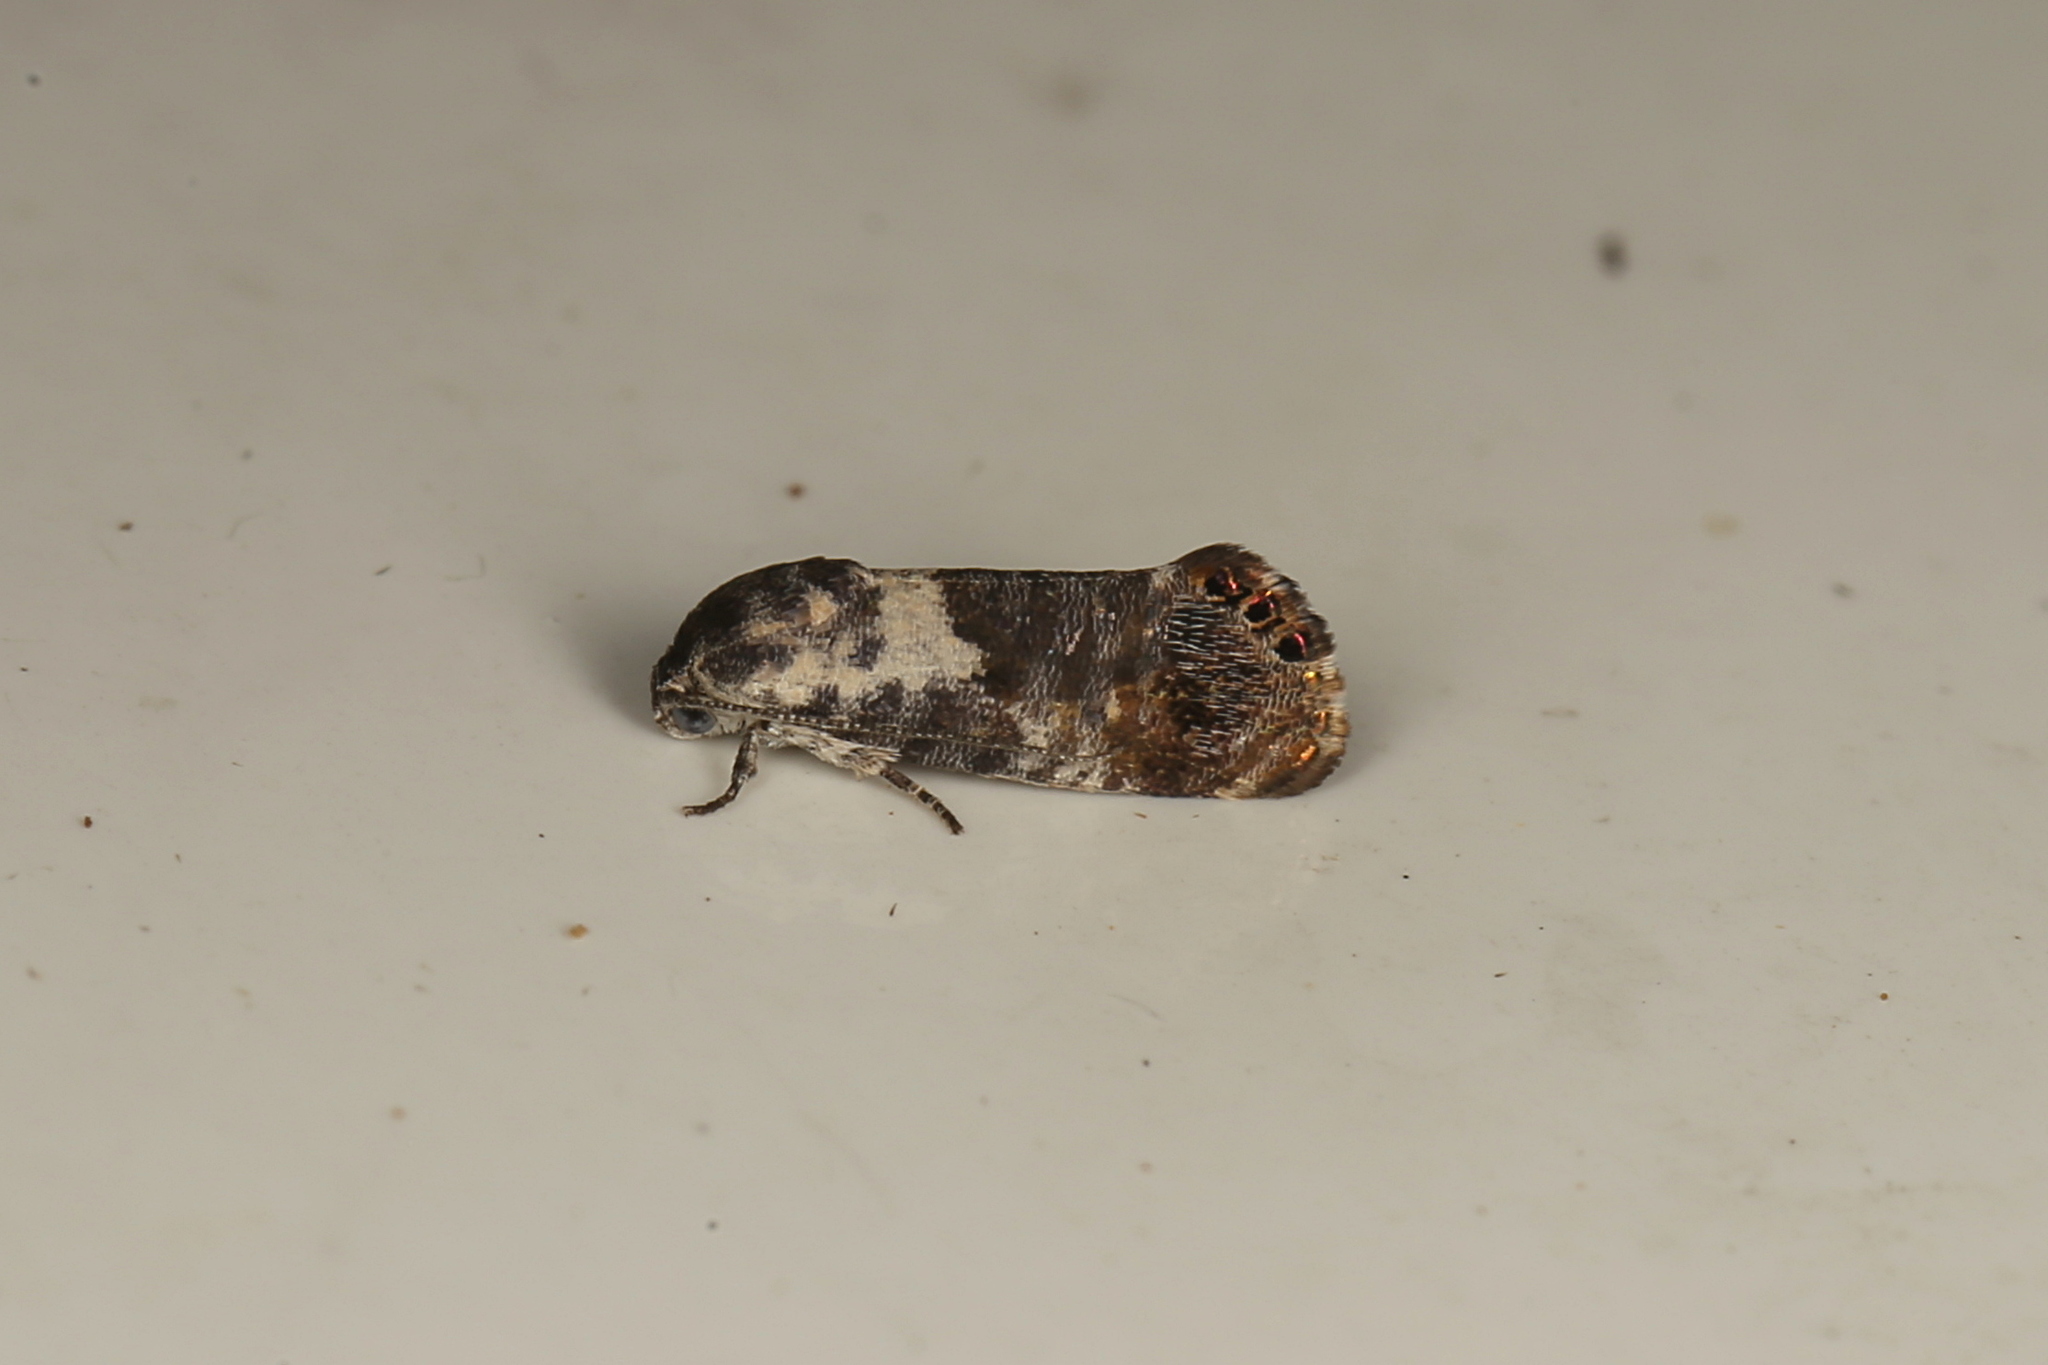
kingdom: Animalia
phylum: Arthropoda
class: Insecta
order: Lepidoptera
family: Depressariidae
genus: Eupselia
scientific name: Eupselia metabola
